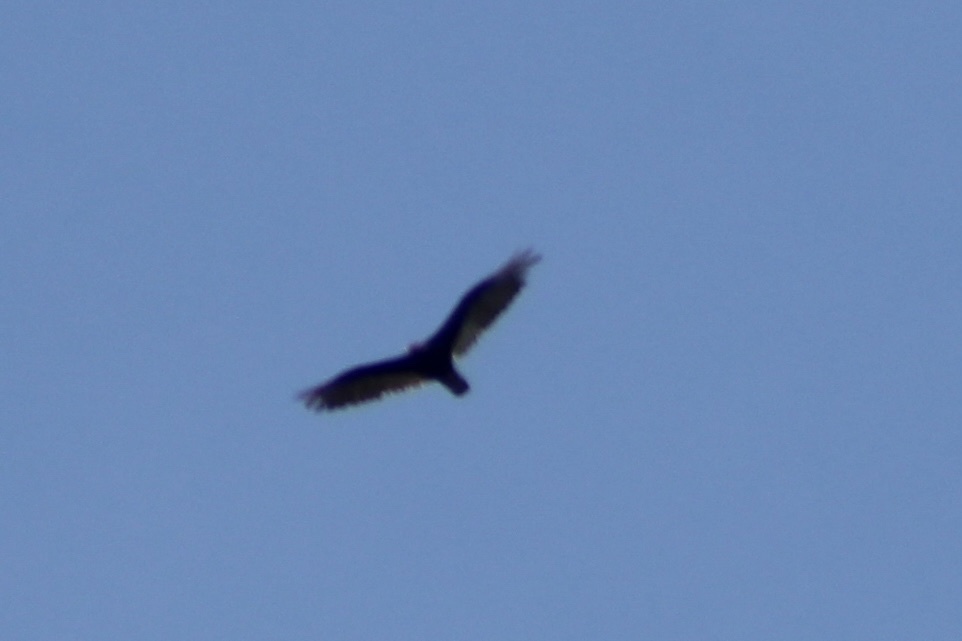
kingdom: Animalia
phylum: Chordata
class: Aves
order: Accipitriformes
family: Cathartidae
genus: Cathartes
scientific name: Cathartes aura
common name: Turkey vulture
